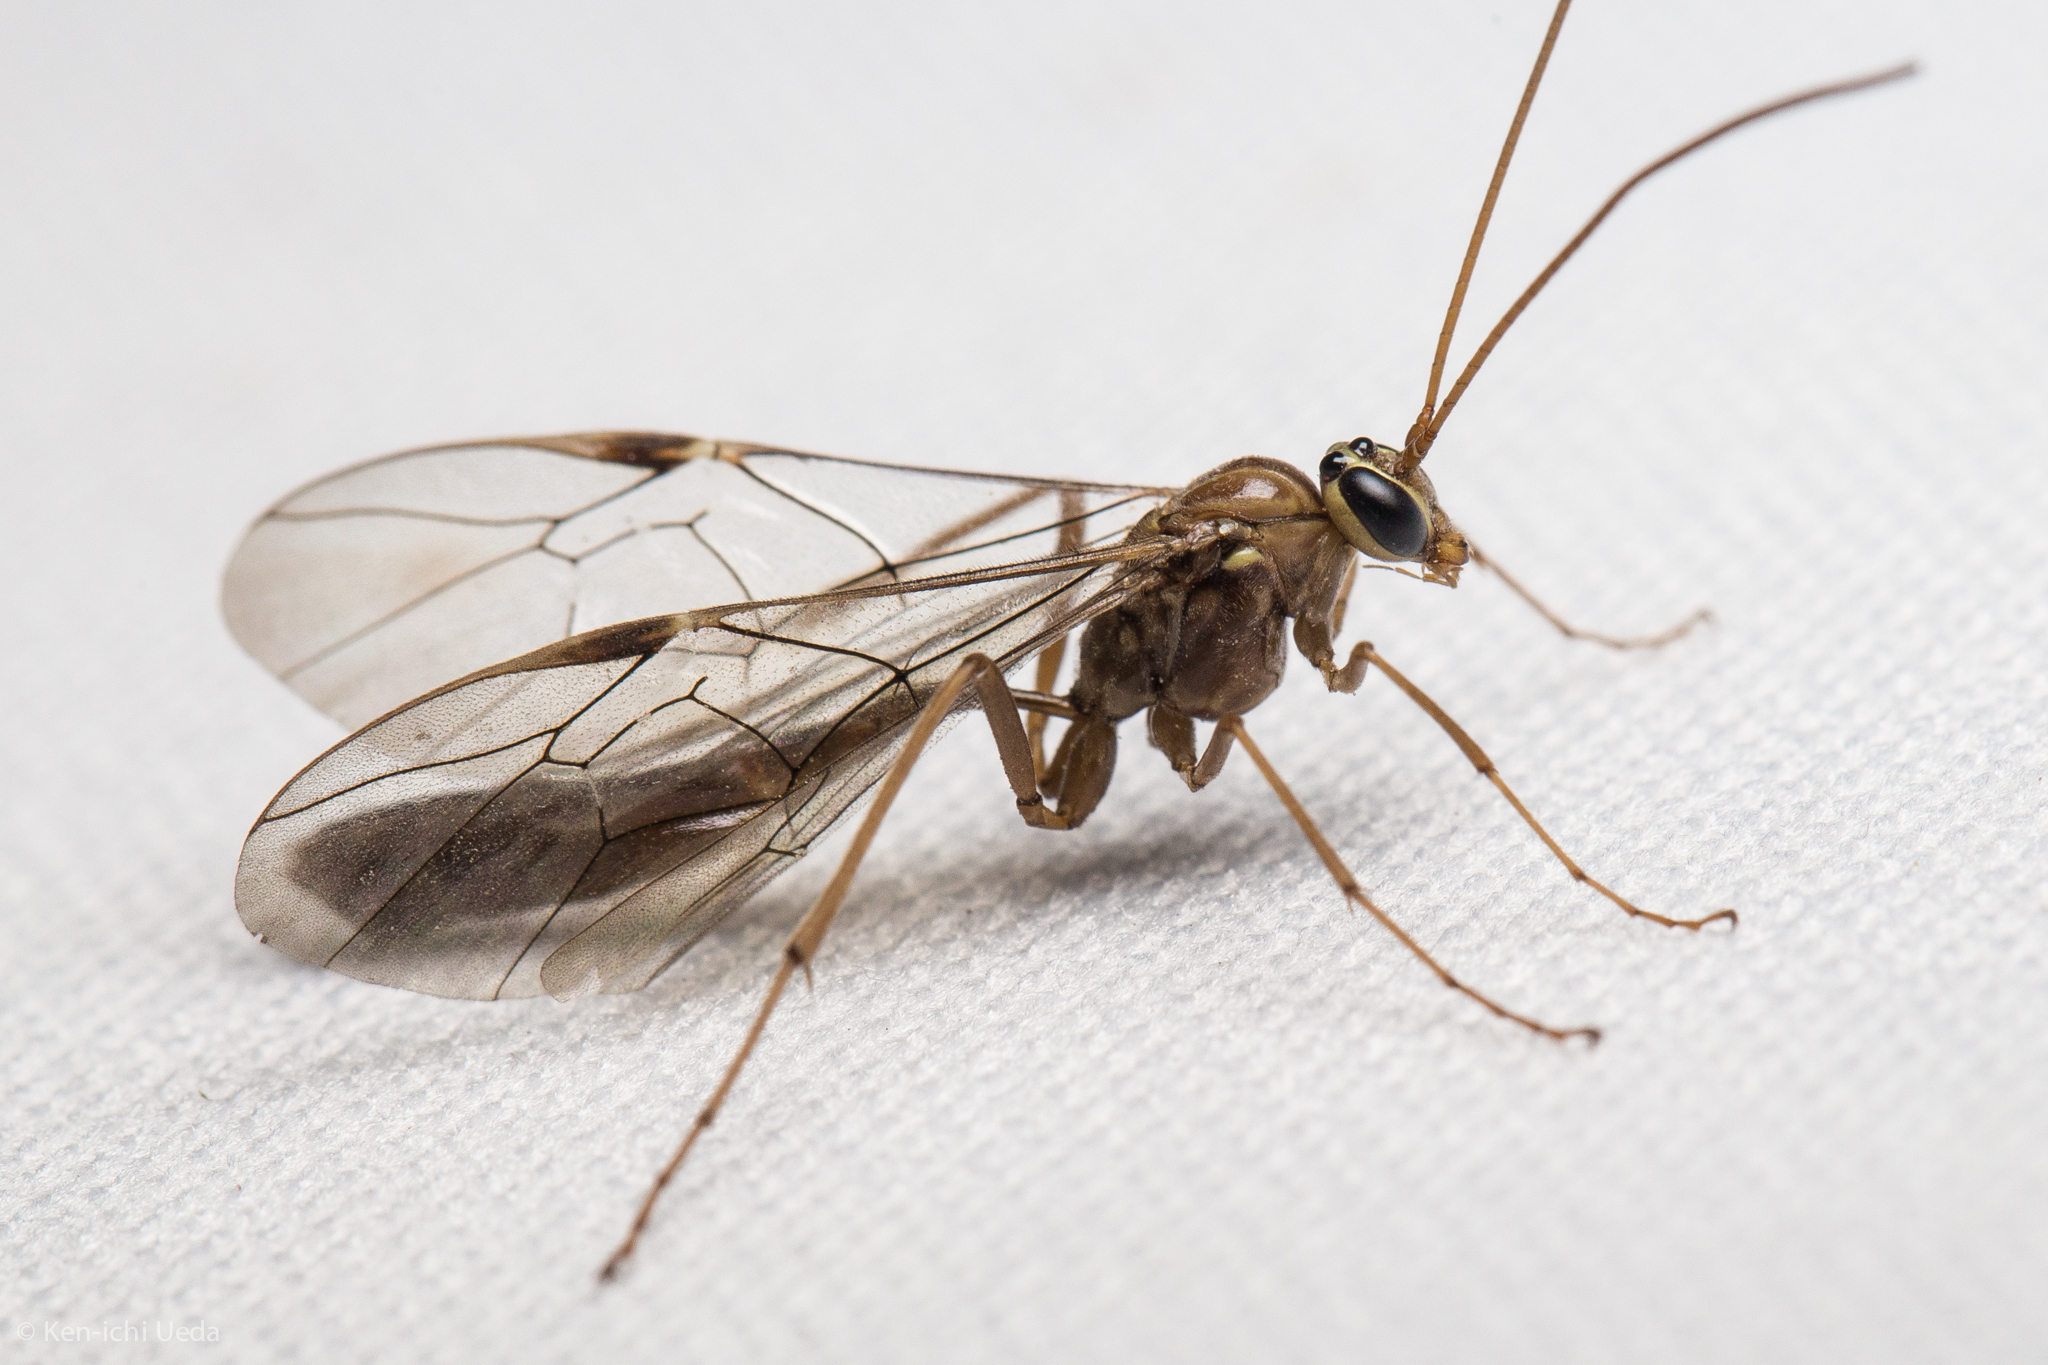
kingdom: Animalia
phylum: Arthropoda
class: Insecta
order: Hymenoptera
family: Ichneumonidae
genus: Ophion
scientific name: Ophion
